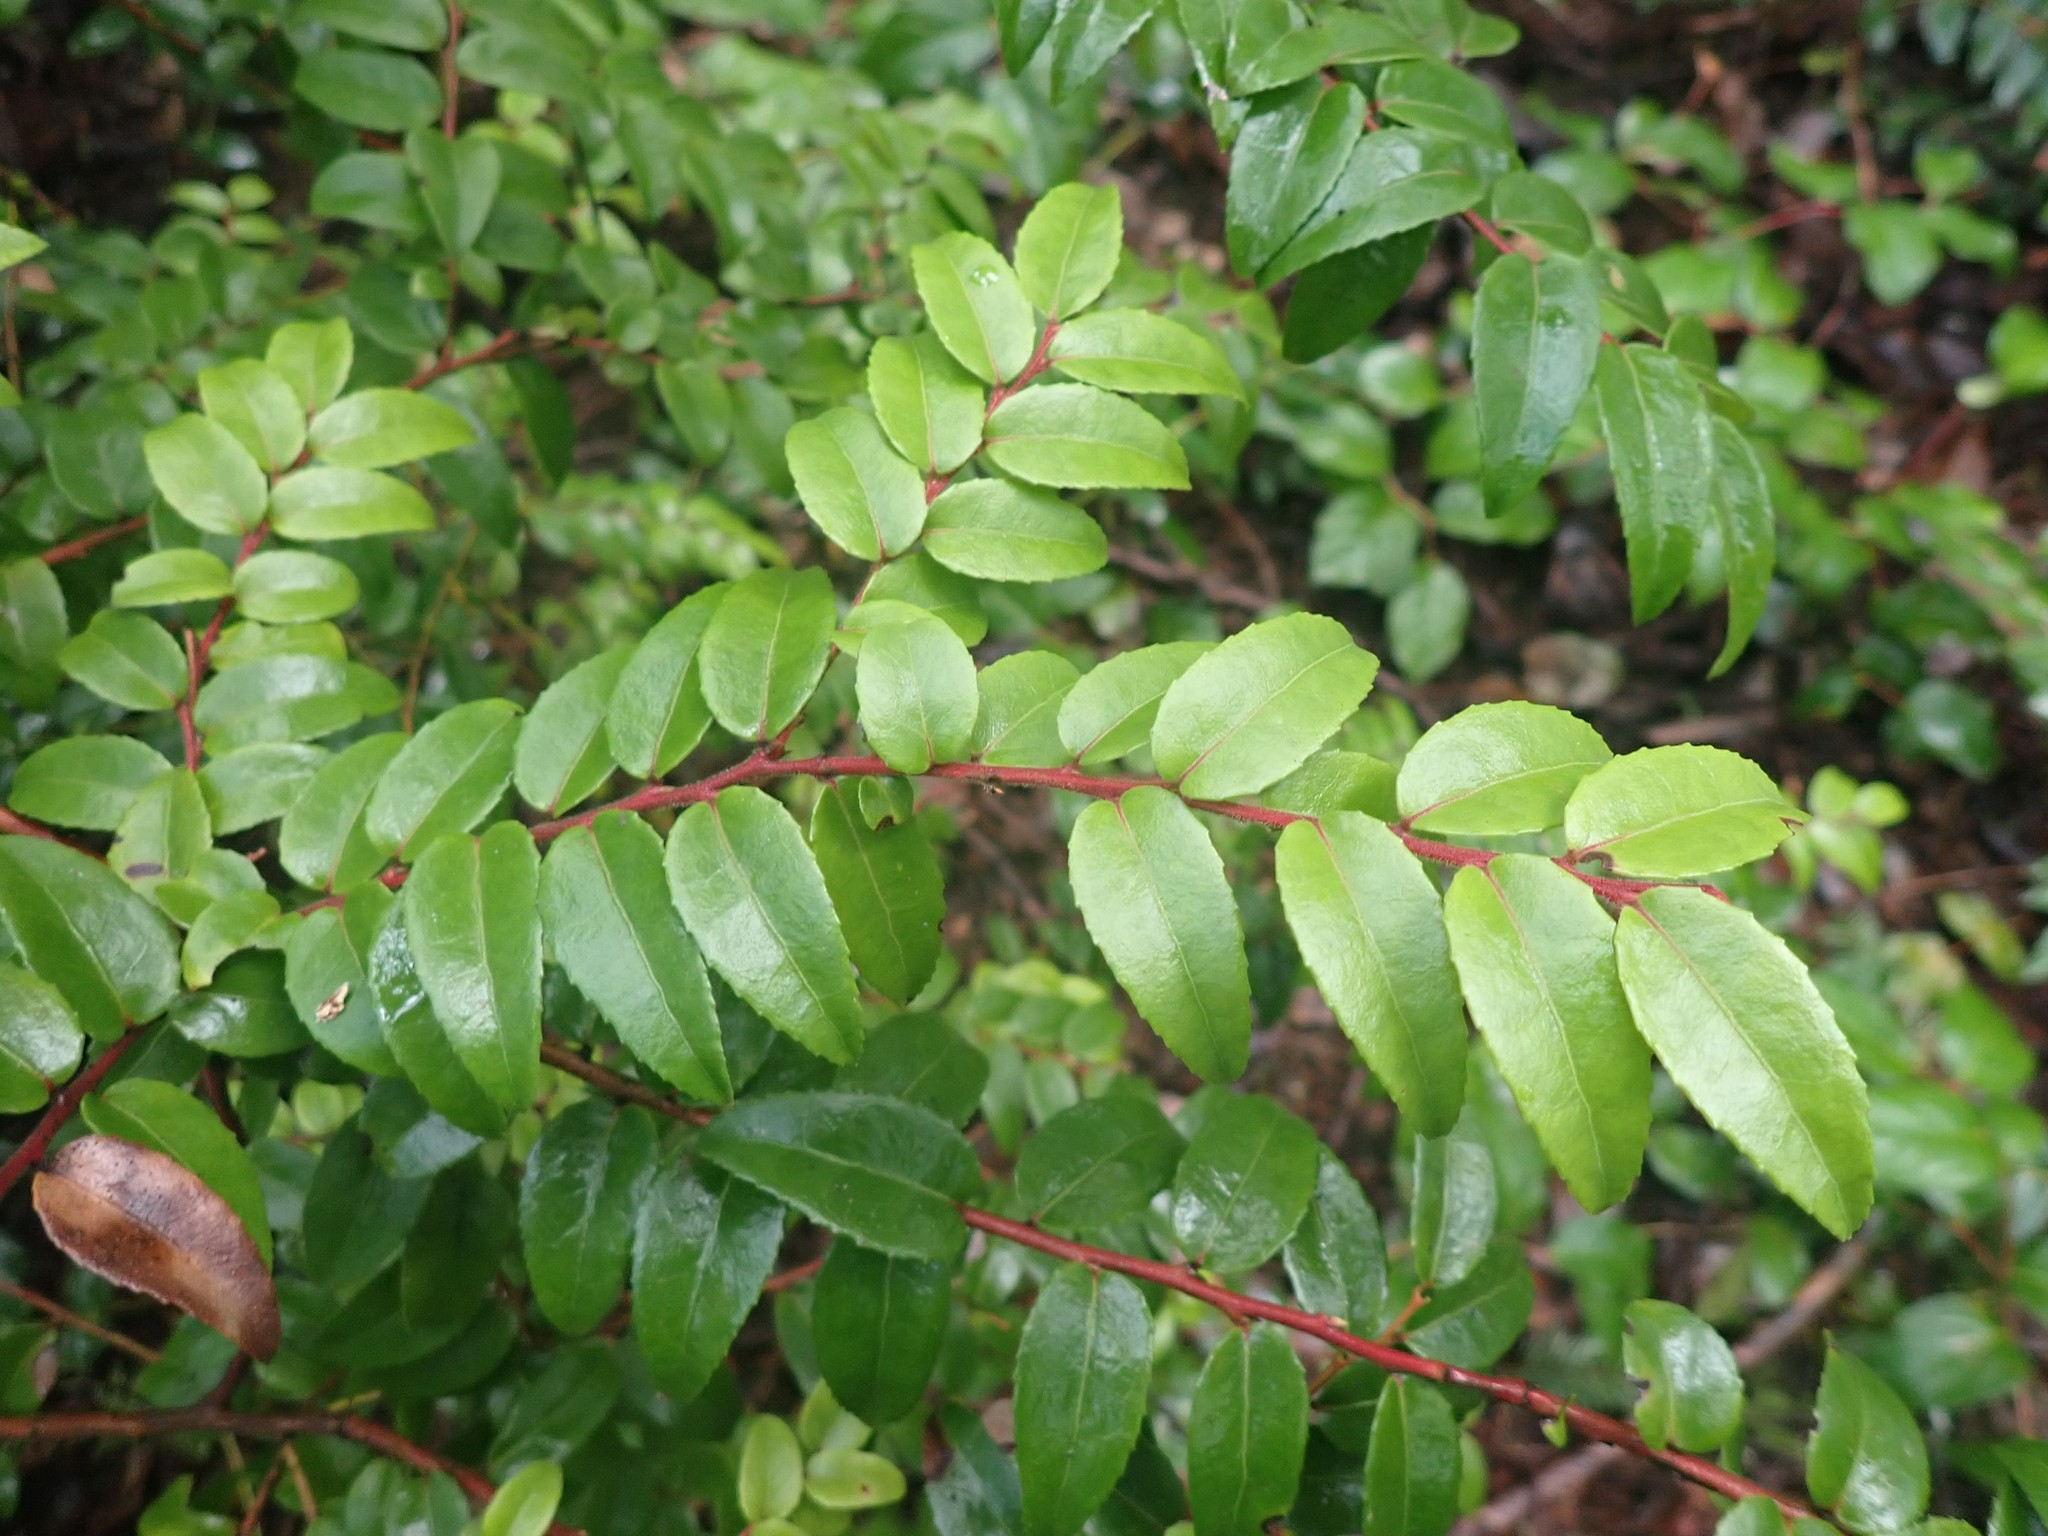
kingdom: Plantae
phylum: Tracheophyta
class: Magnoliopsida
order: Ericales
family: Ericaceae
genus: Vaccinium
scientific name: Vaccinium ovatum
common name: California-huckleberry
